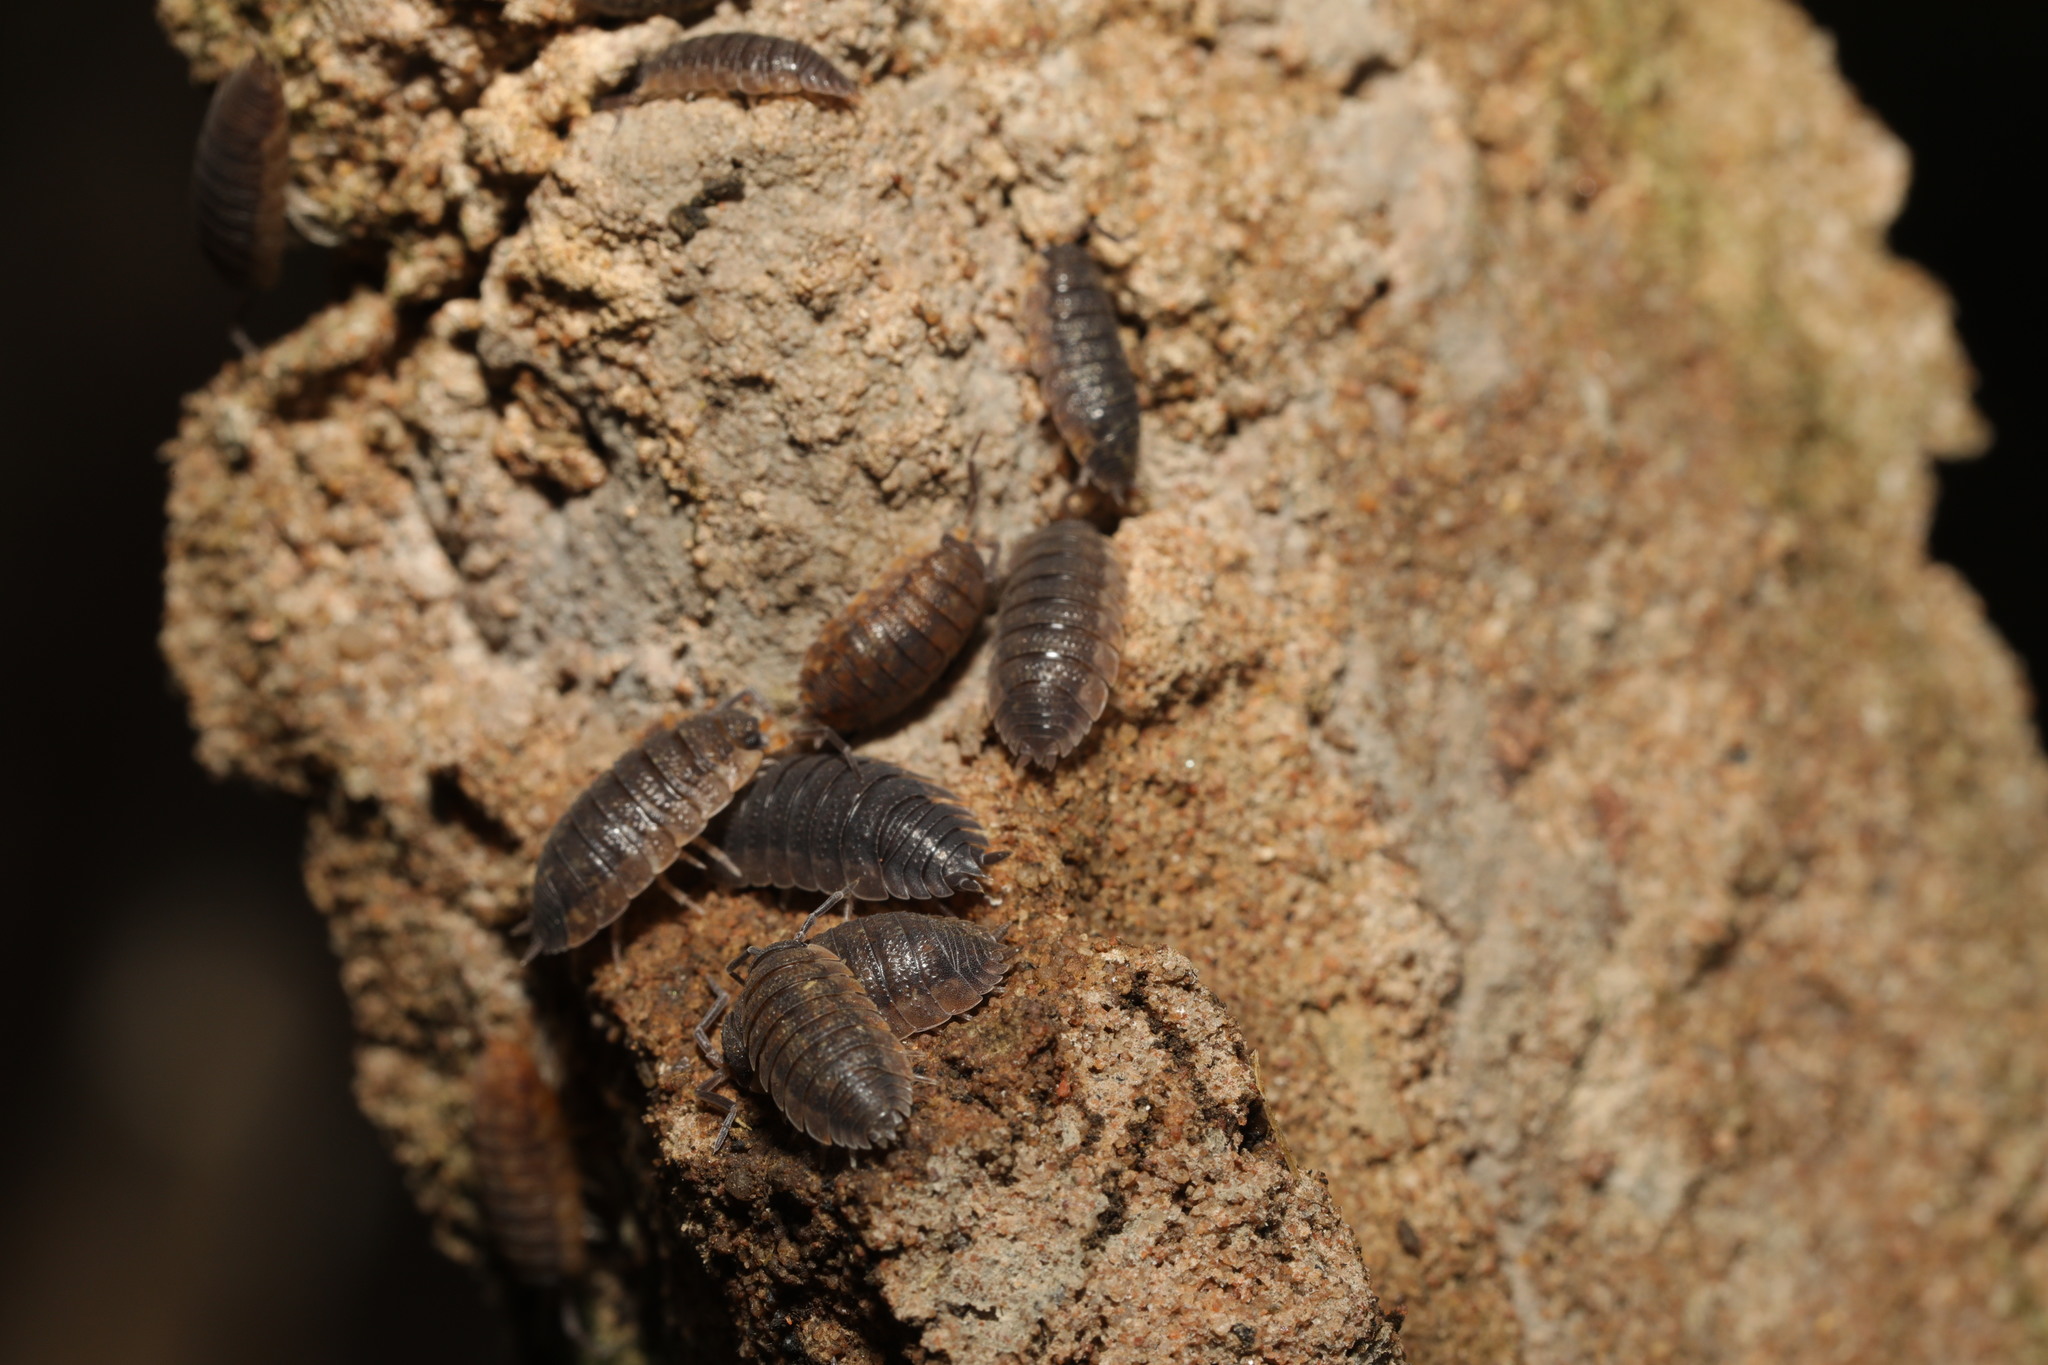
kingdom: Animalia
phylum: Arthropoda
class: Malacostraca
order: Isopoda
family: Porcellionidae
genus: Porcellio
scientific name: Porcellio scaber
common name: Common rough woodlouse
